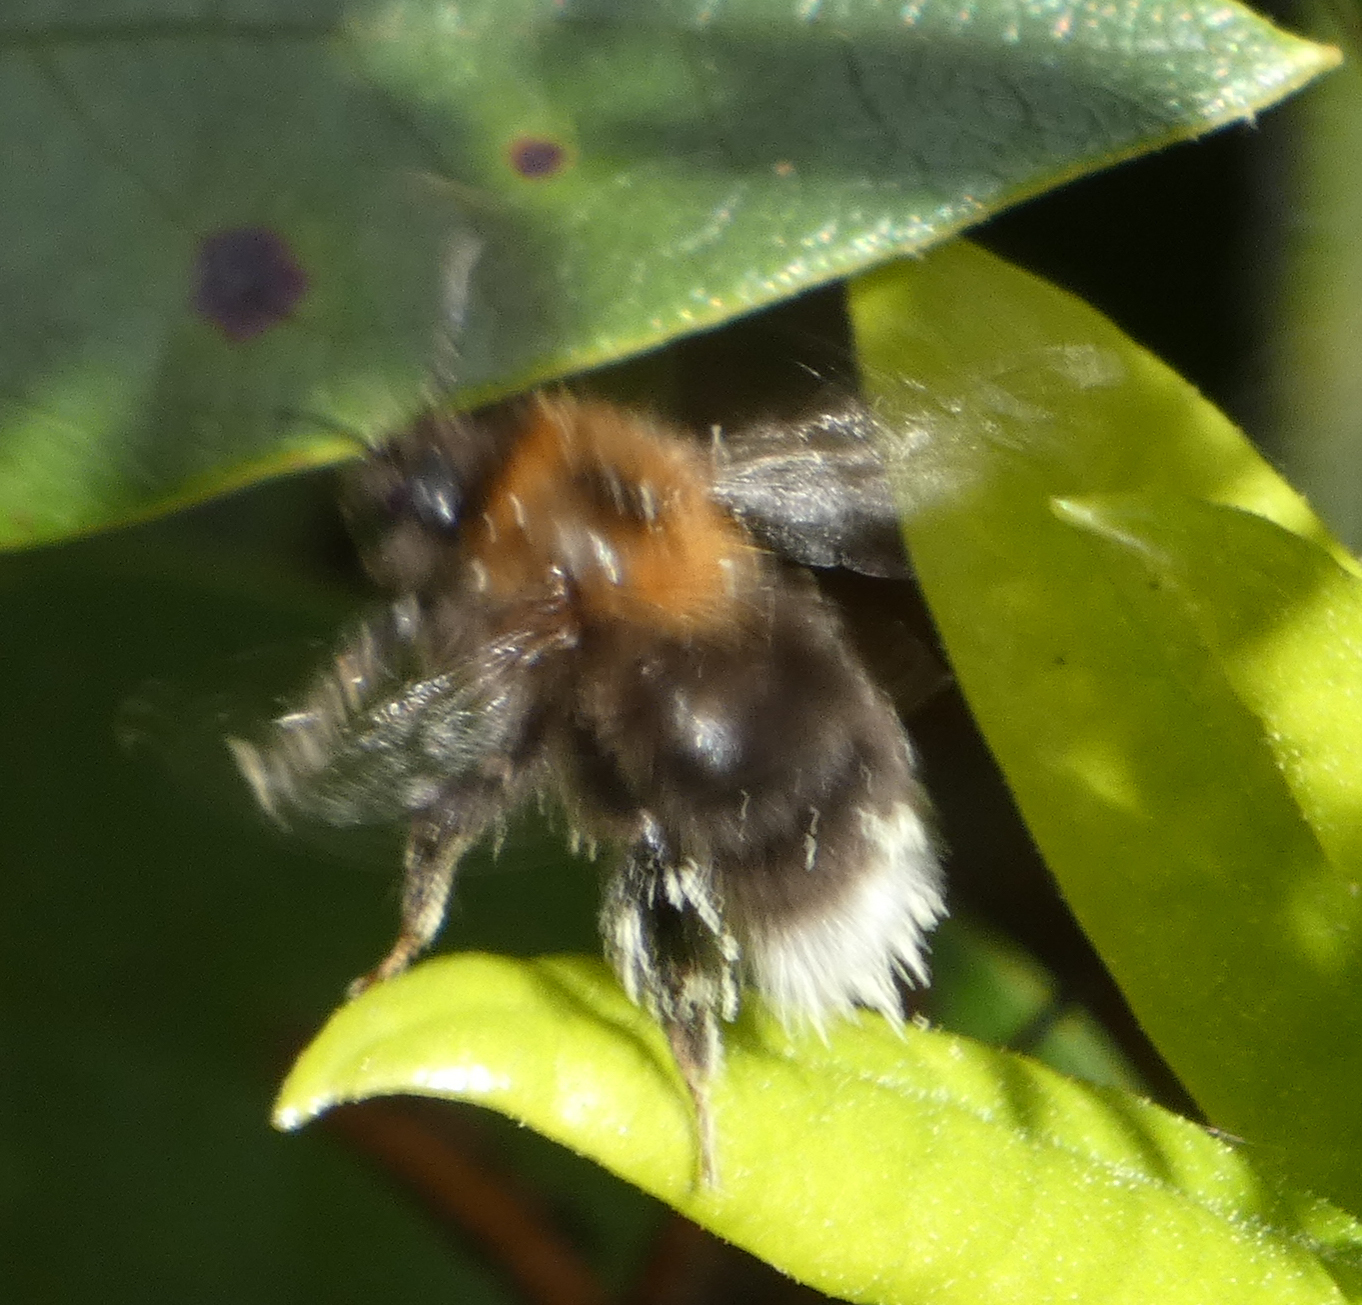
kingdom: Animalia
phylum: Arthropoda
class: Insecta
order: Hymenoptera
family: Apidae
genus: Bombus
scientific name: Bombus hypnorum
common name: New garden bumblebee
